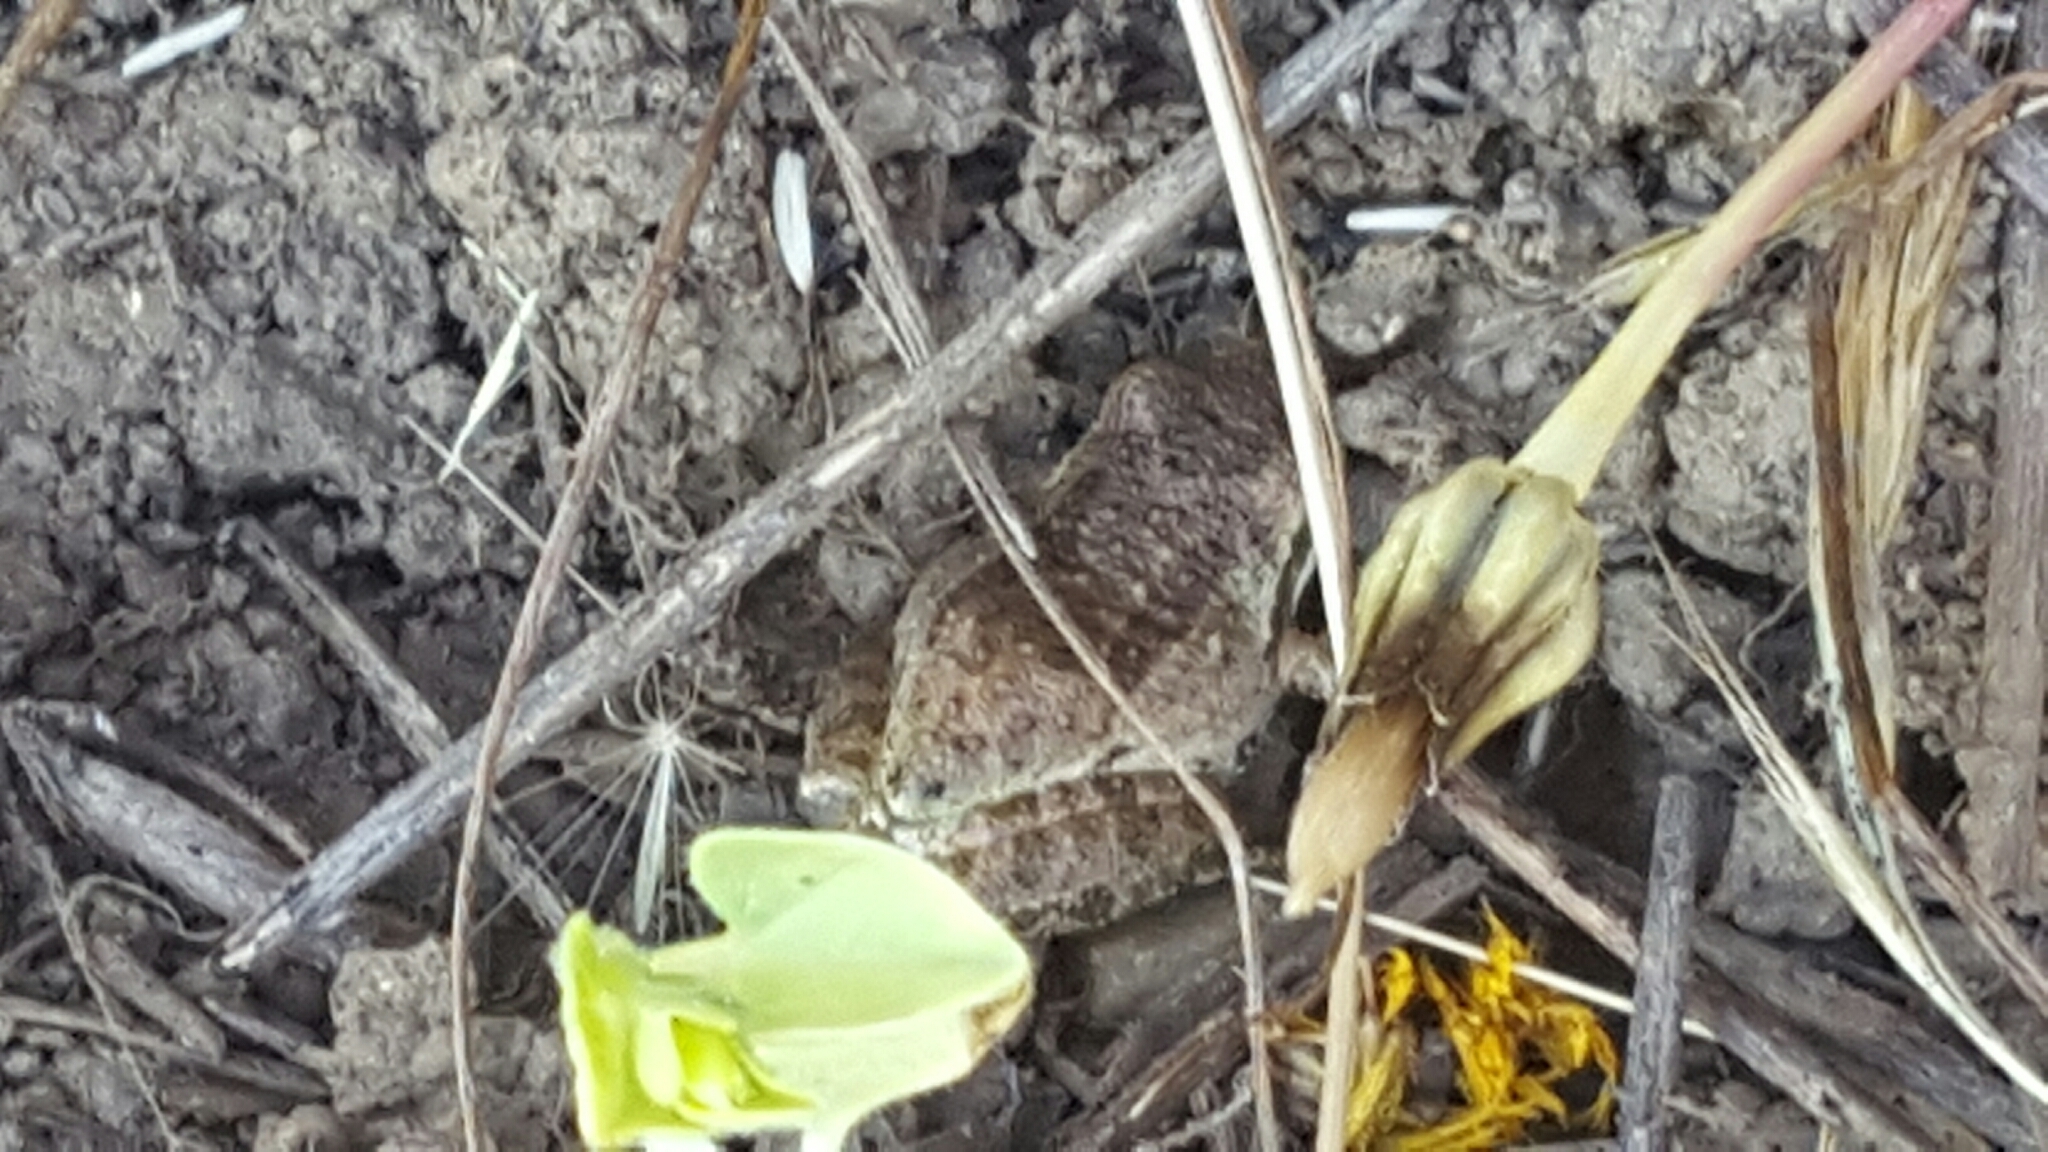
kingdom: Animalia
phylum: Chordata
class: Amphibia
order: Anura
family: Hylidae
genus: Pseudacris
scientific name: Pseudacris regilla
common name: Pacific chorus frog
